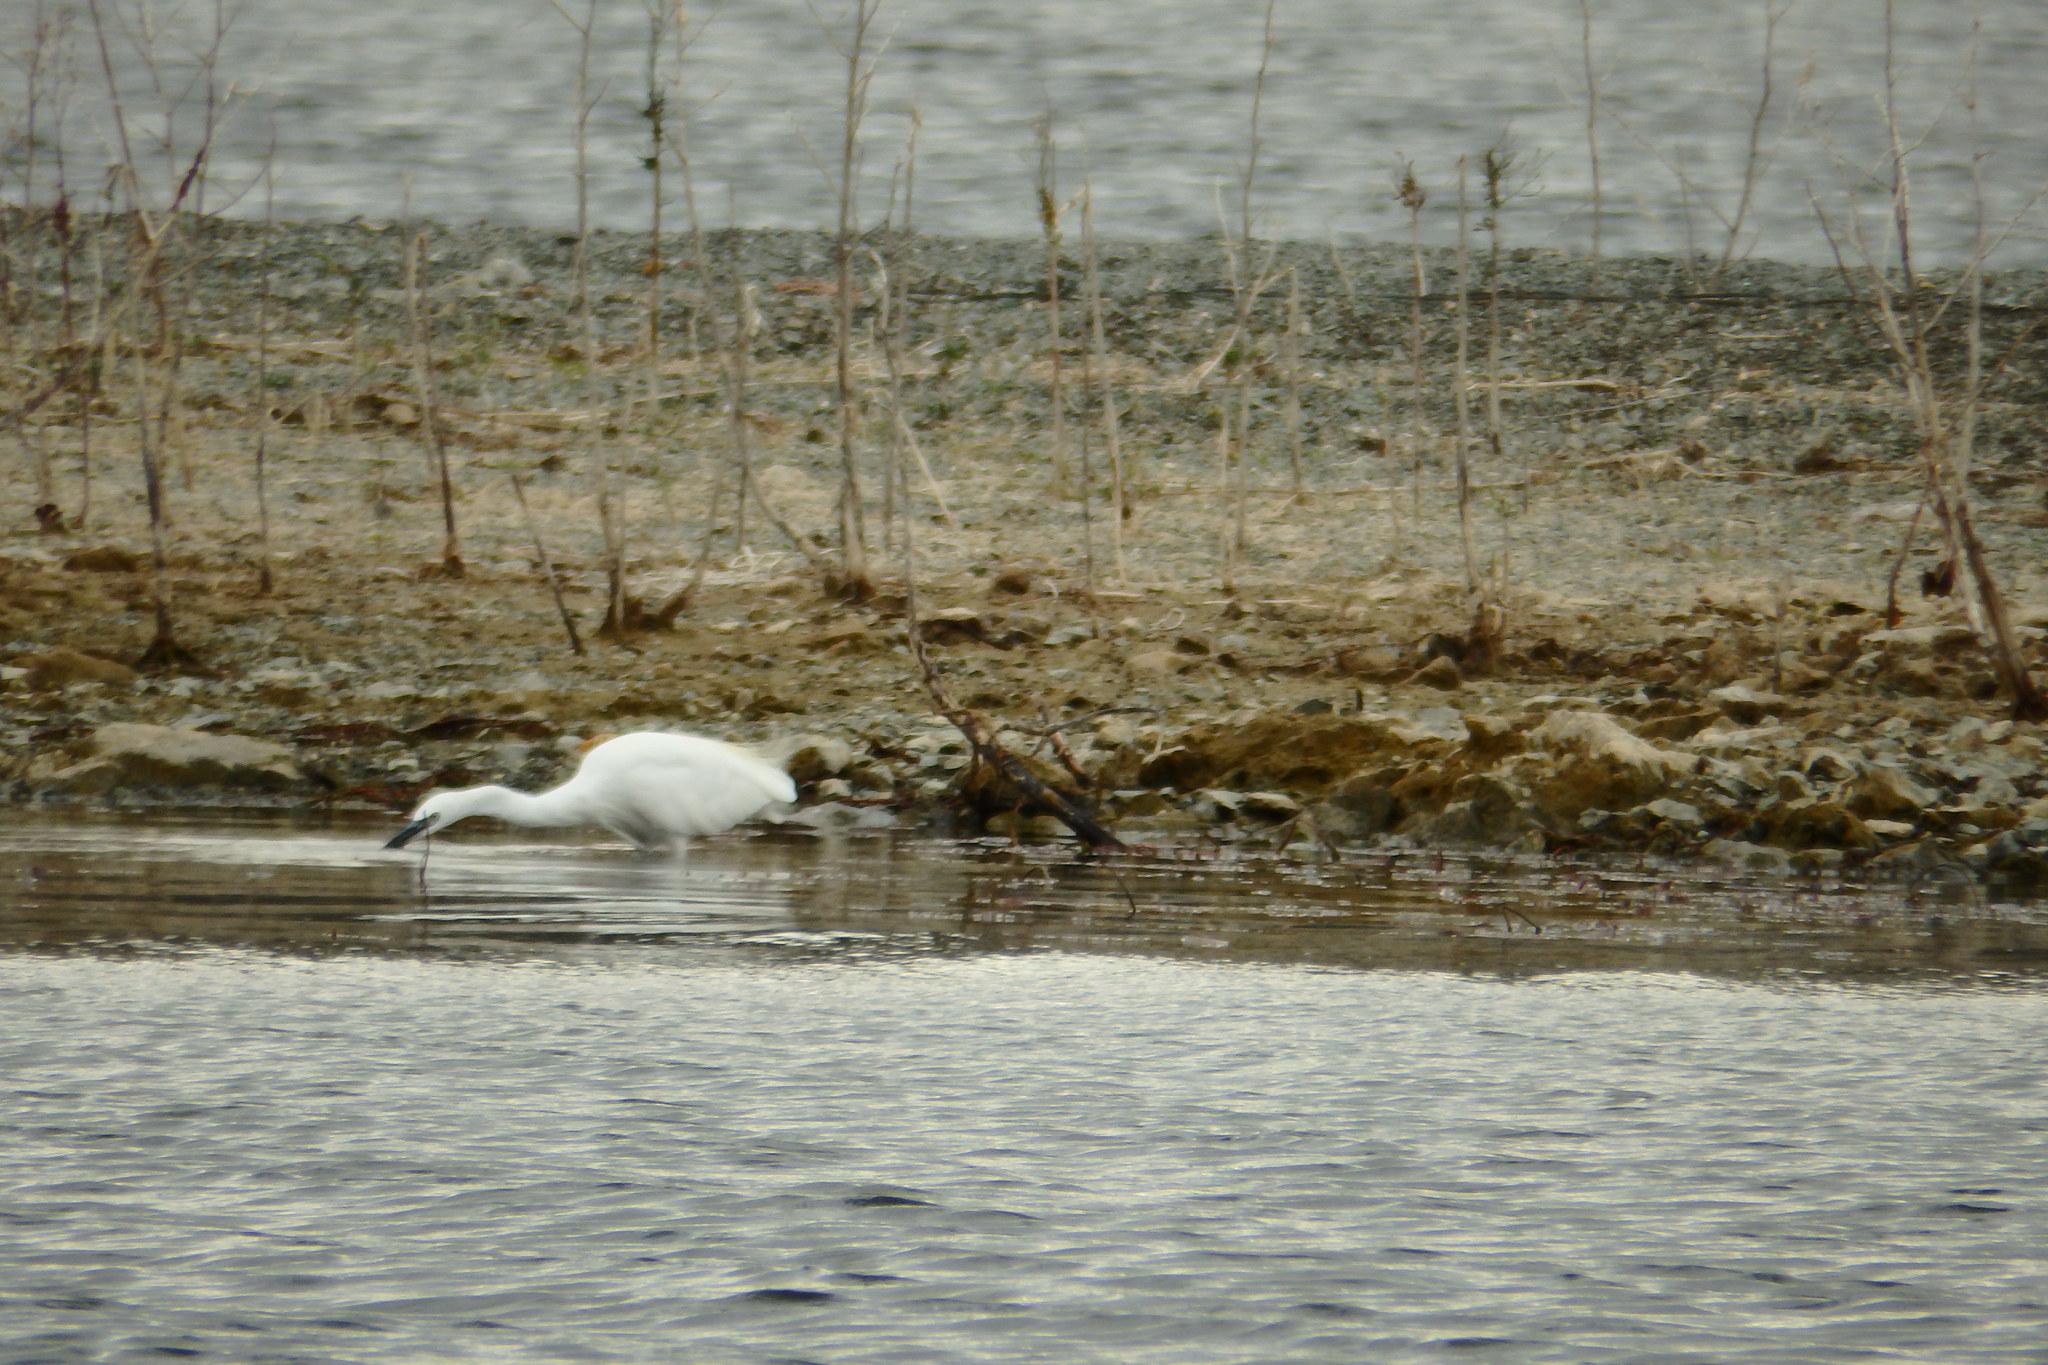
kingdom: Animalia
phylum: Chordata
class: Aves
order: Pelecaniformes
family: Ardeidae
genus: Egretta
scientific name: Egretta garzetta
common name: Little egret
